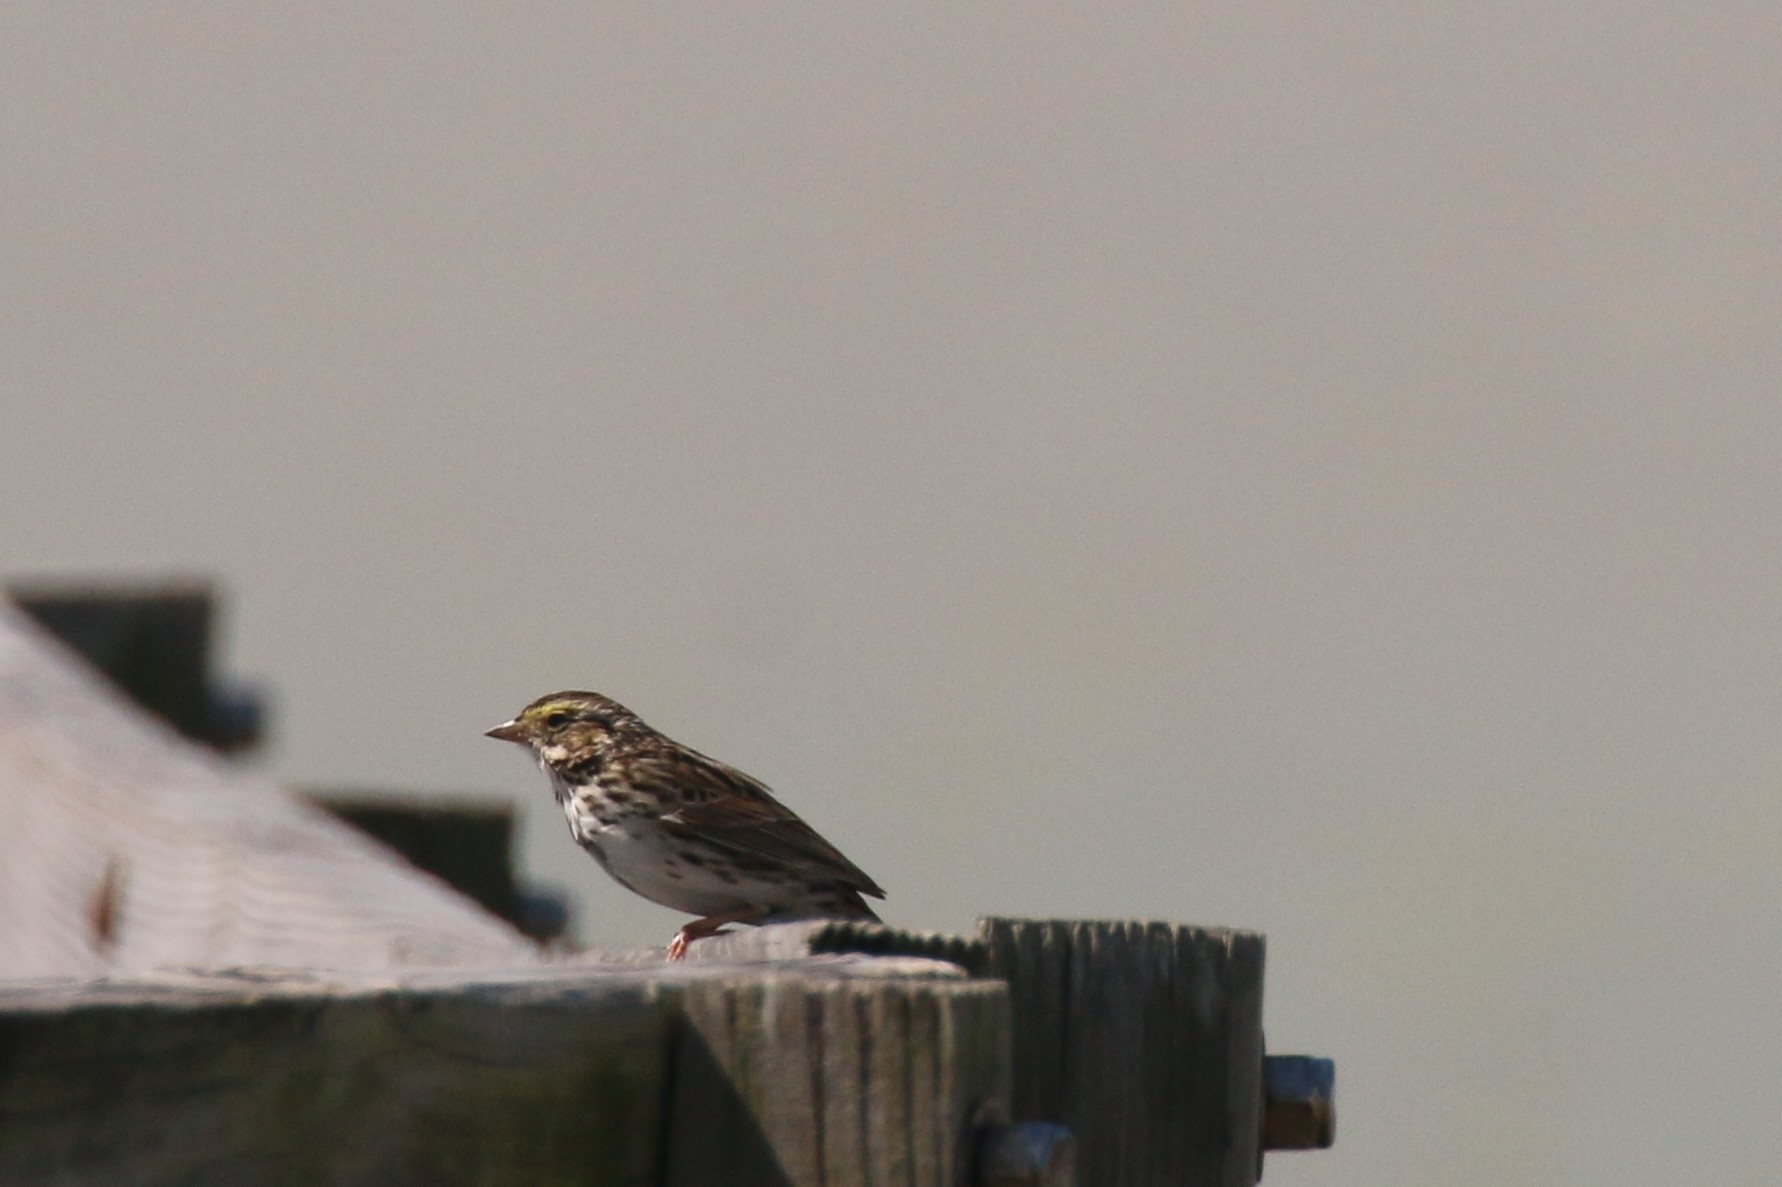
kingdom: Animalia
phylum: Chordata
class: Aves
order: Passeriformes
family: Passerellidae
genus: Passerculus
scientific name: Passerculus sandwichensis
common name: Savannah sparrow
